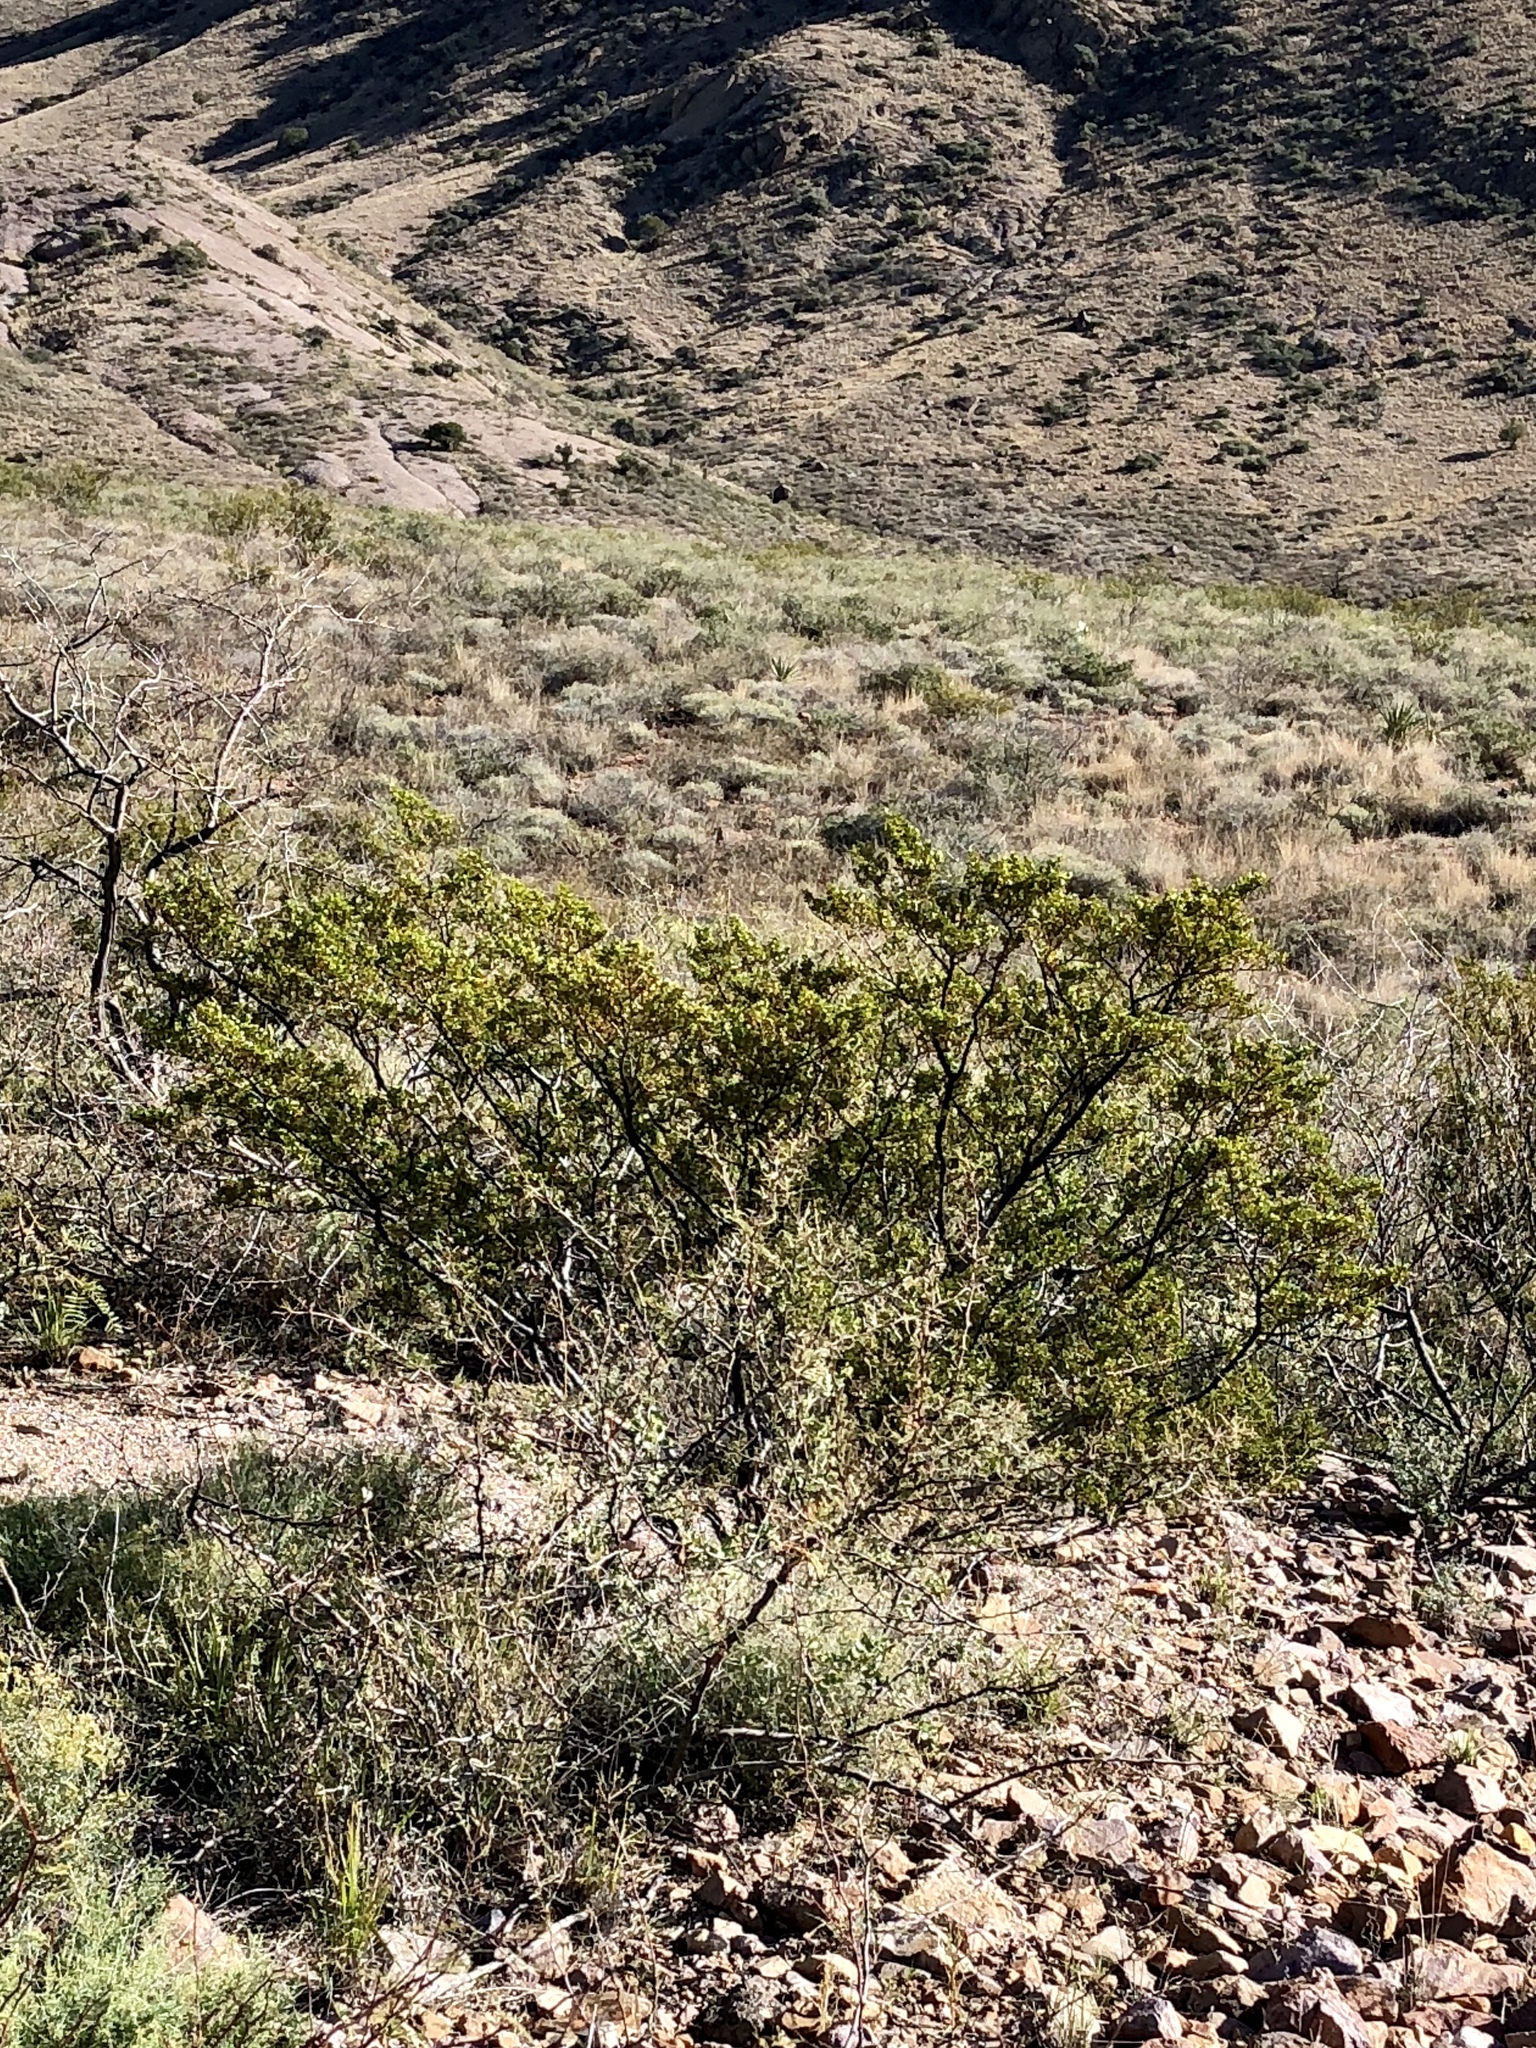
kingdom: Plantae
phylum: Tracheophyta
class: Magnoliopsida
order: Zygophyllales
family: Zygophyllaceae
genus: Larrea
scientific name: Larrea tridentata
